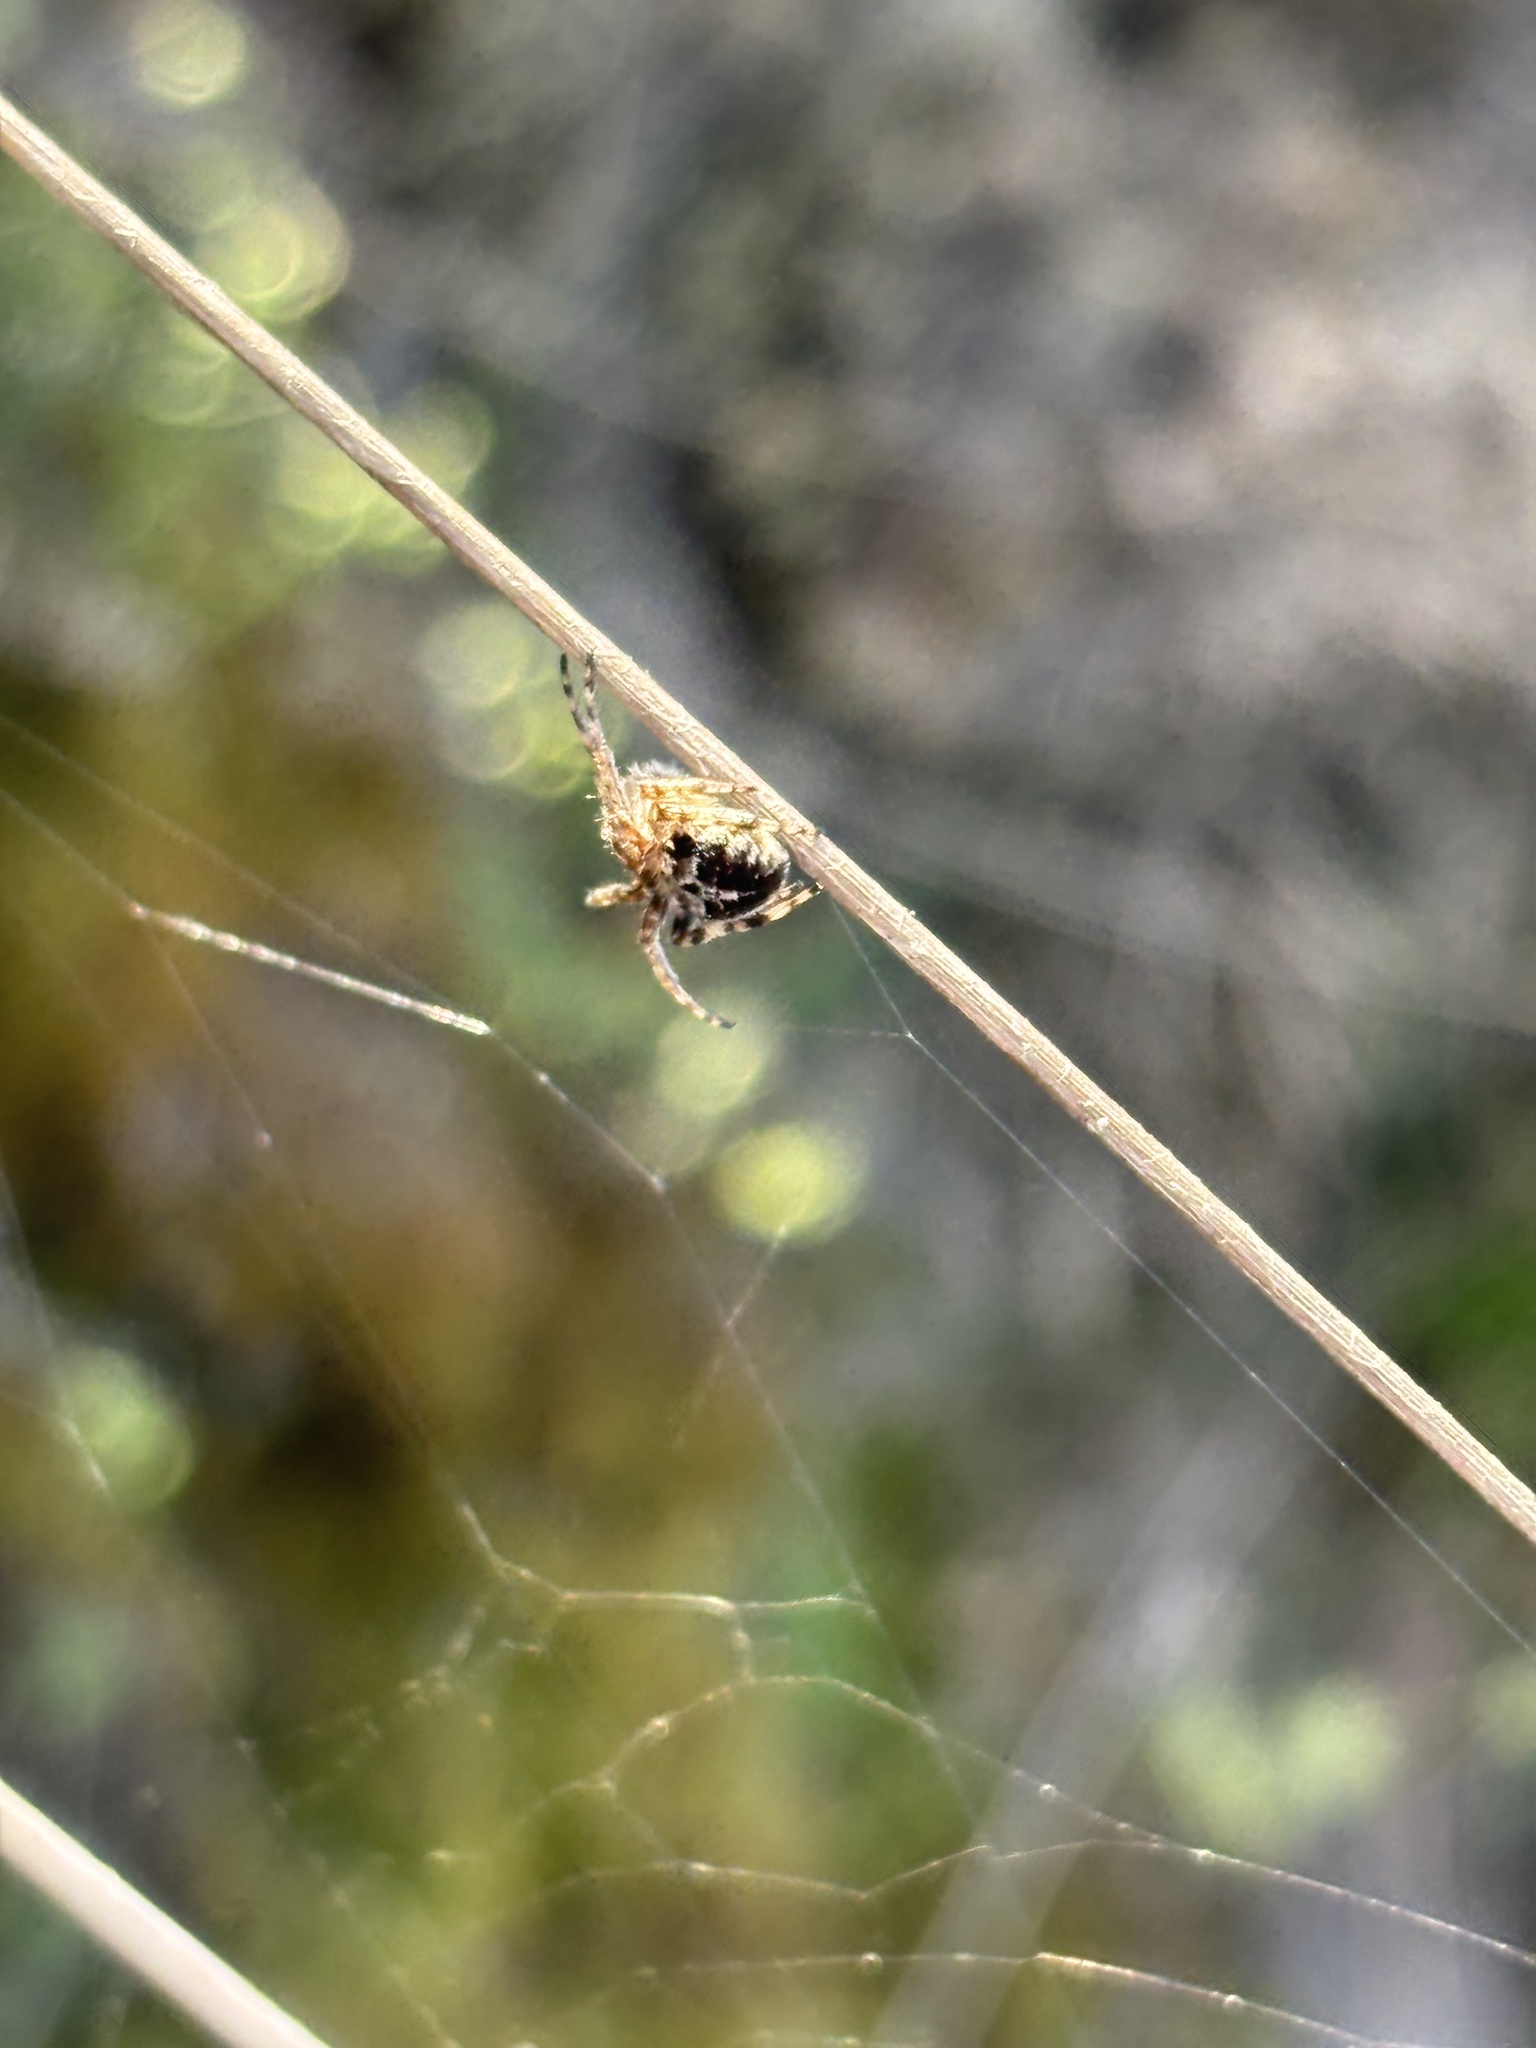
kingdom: Animalia
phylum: Arthropoda
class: Arachnida
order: Araneae
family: Araneidae
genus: Agalenatea
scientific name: Agalenatea redii
